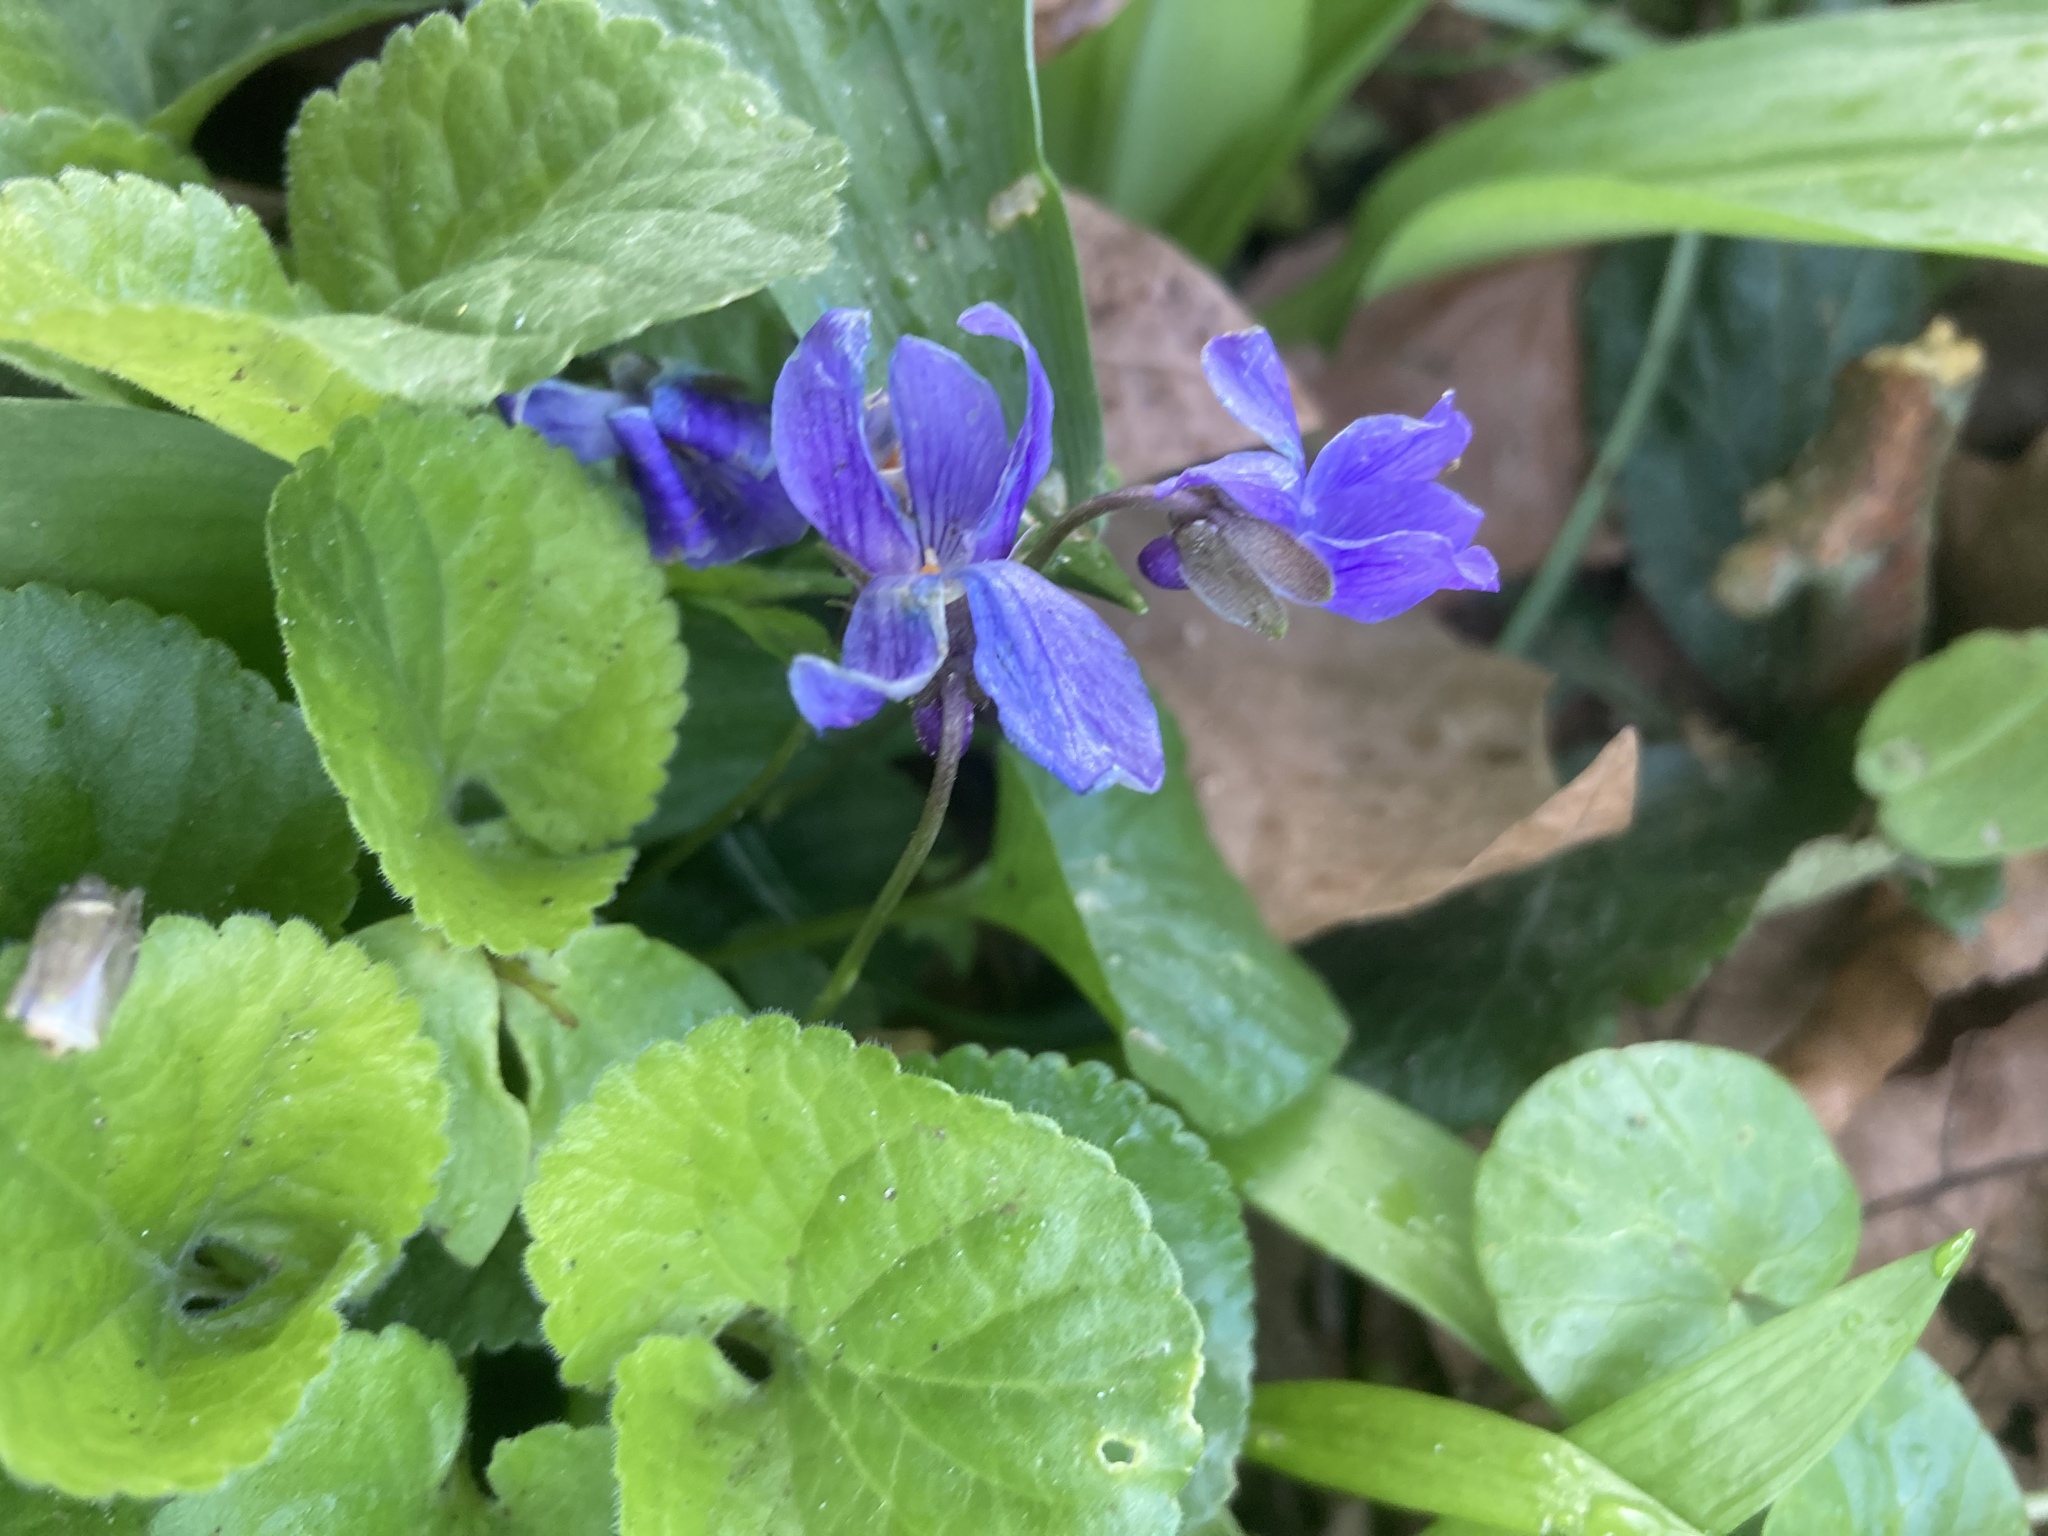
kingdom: Plantae
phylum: Tracheophyta
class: Magnoliopsida
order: Malpighiales
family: Violaceae
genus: Viola
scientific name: Viola odorata
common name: Sweet violet
